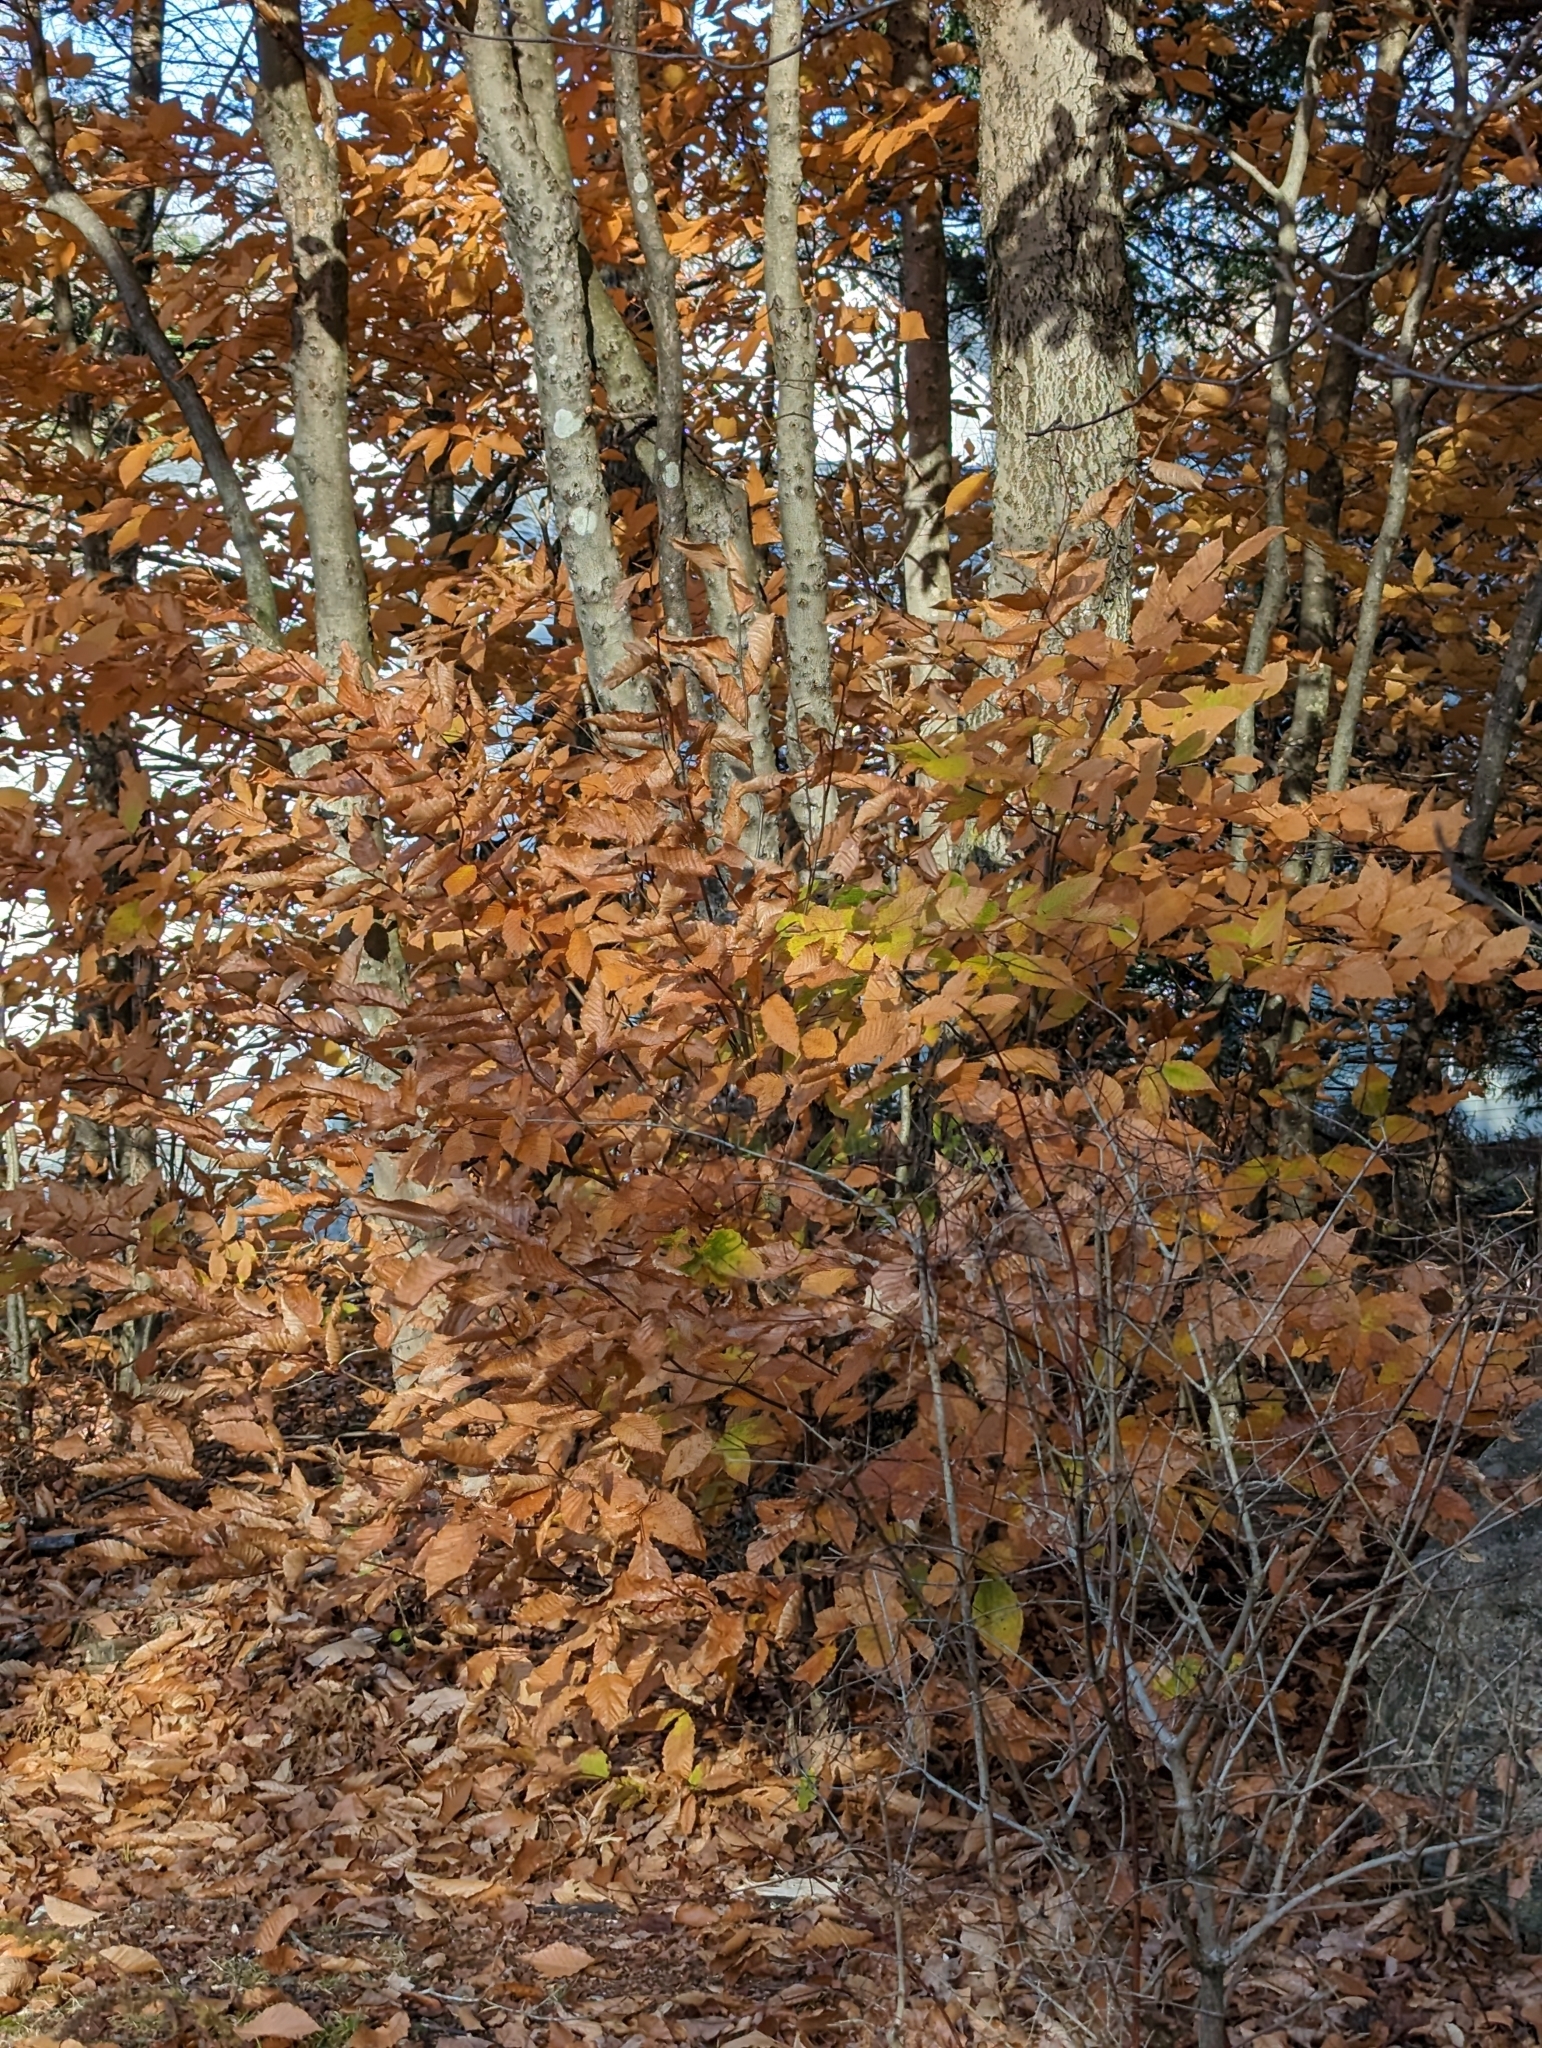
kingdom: Plantae
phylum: Tracheophyta
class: Magnoliopsida
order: Fagales
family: Fagaceae
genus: Fagus
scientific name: Fagus grandifolia
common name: American beech
